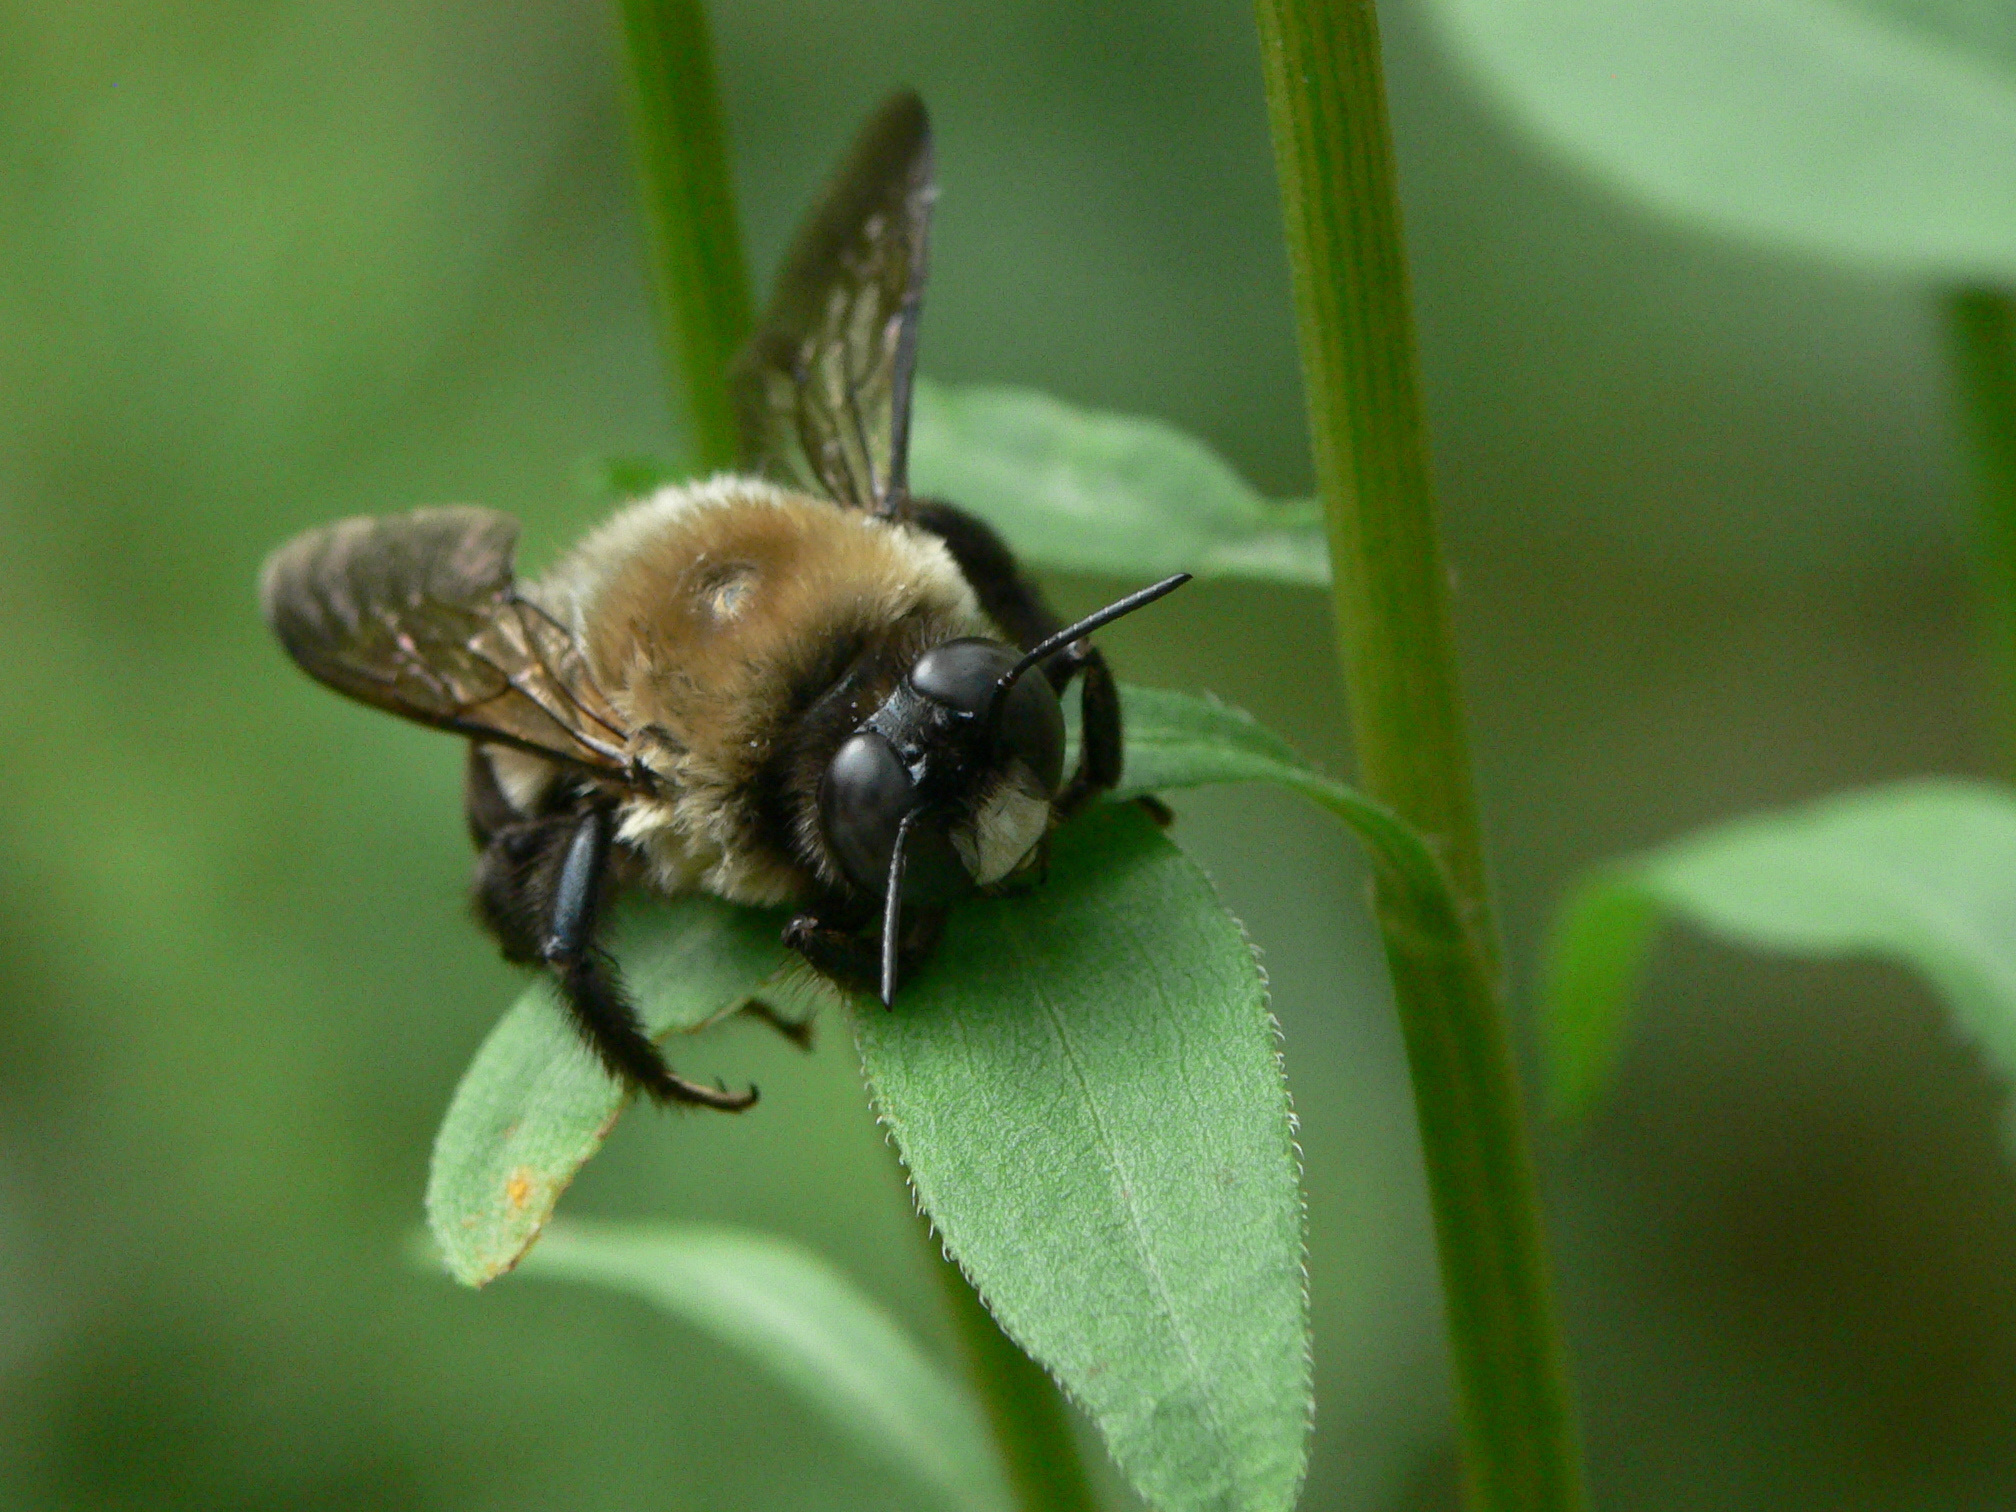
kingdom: Animalia
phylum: Arthropoda
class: Insecta
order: Hymenoptera
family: Apidae
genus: Xylocopa
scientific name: Xylocopa virginica
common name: Carpenter bee
